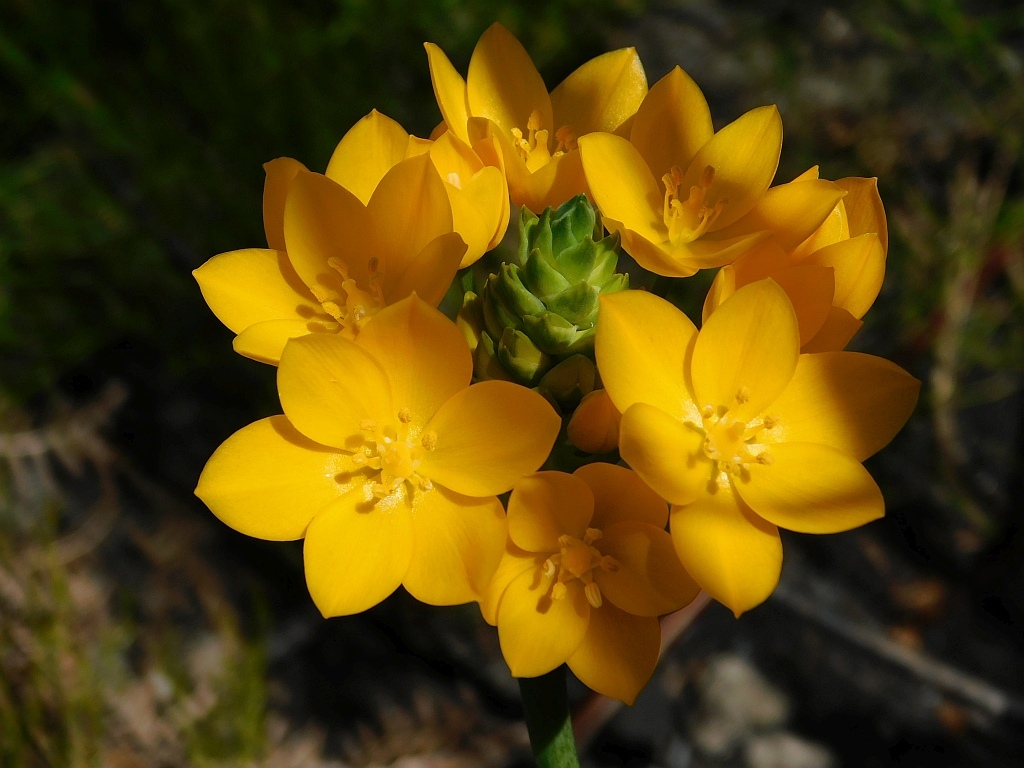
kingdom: Plantae
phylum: Tracheophyta
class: Liliopsida
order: Asparagales
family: Asparagaceae
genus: Ornithogalum
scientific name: Ornithogalum dubium
